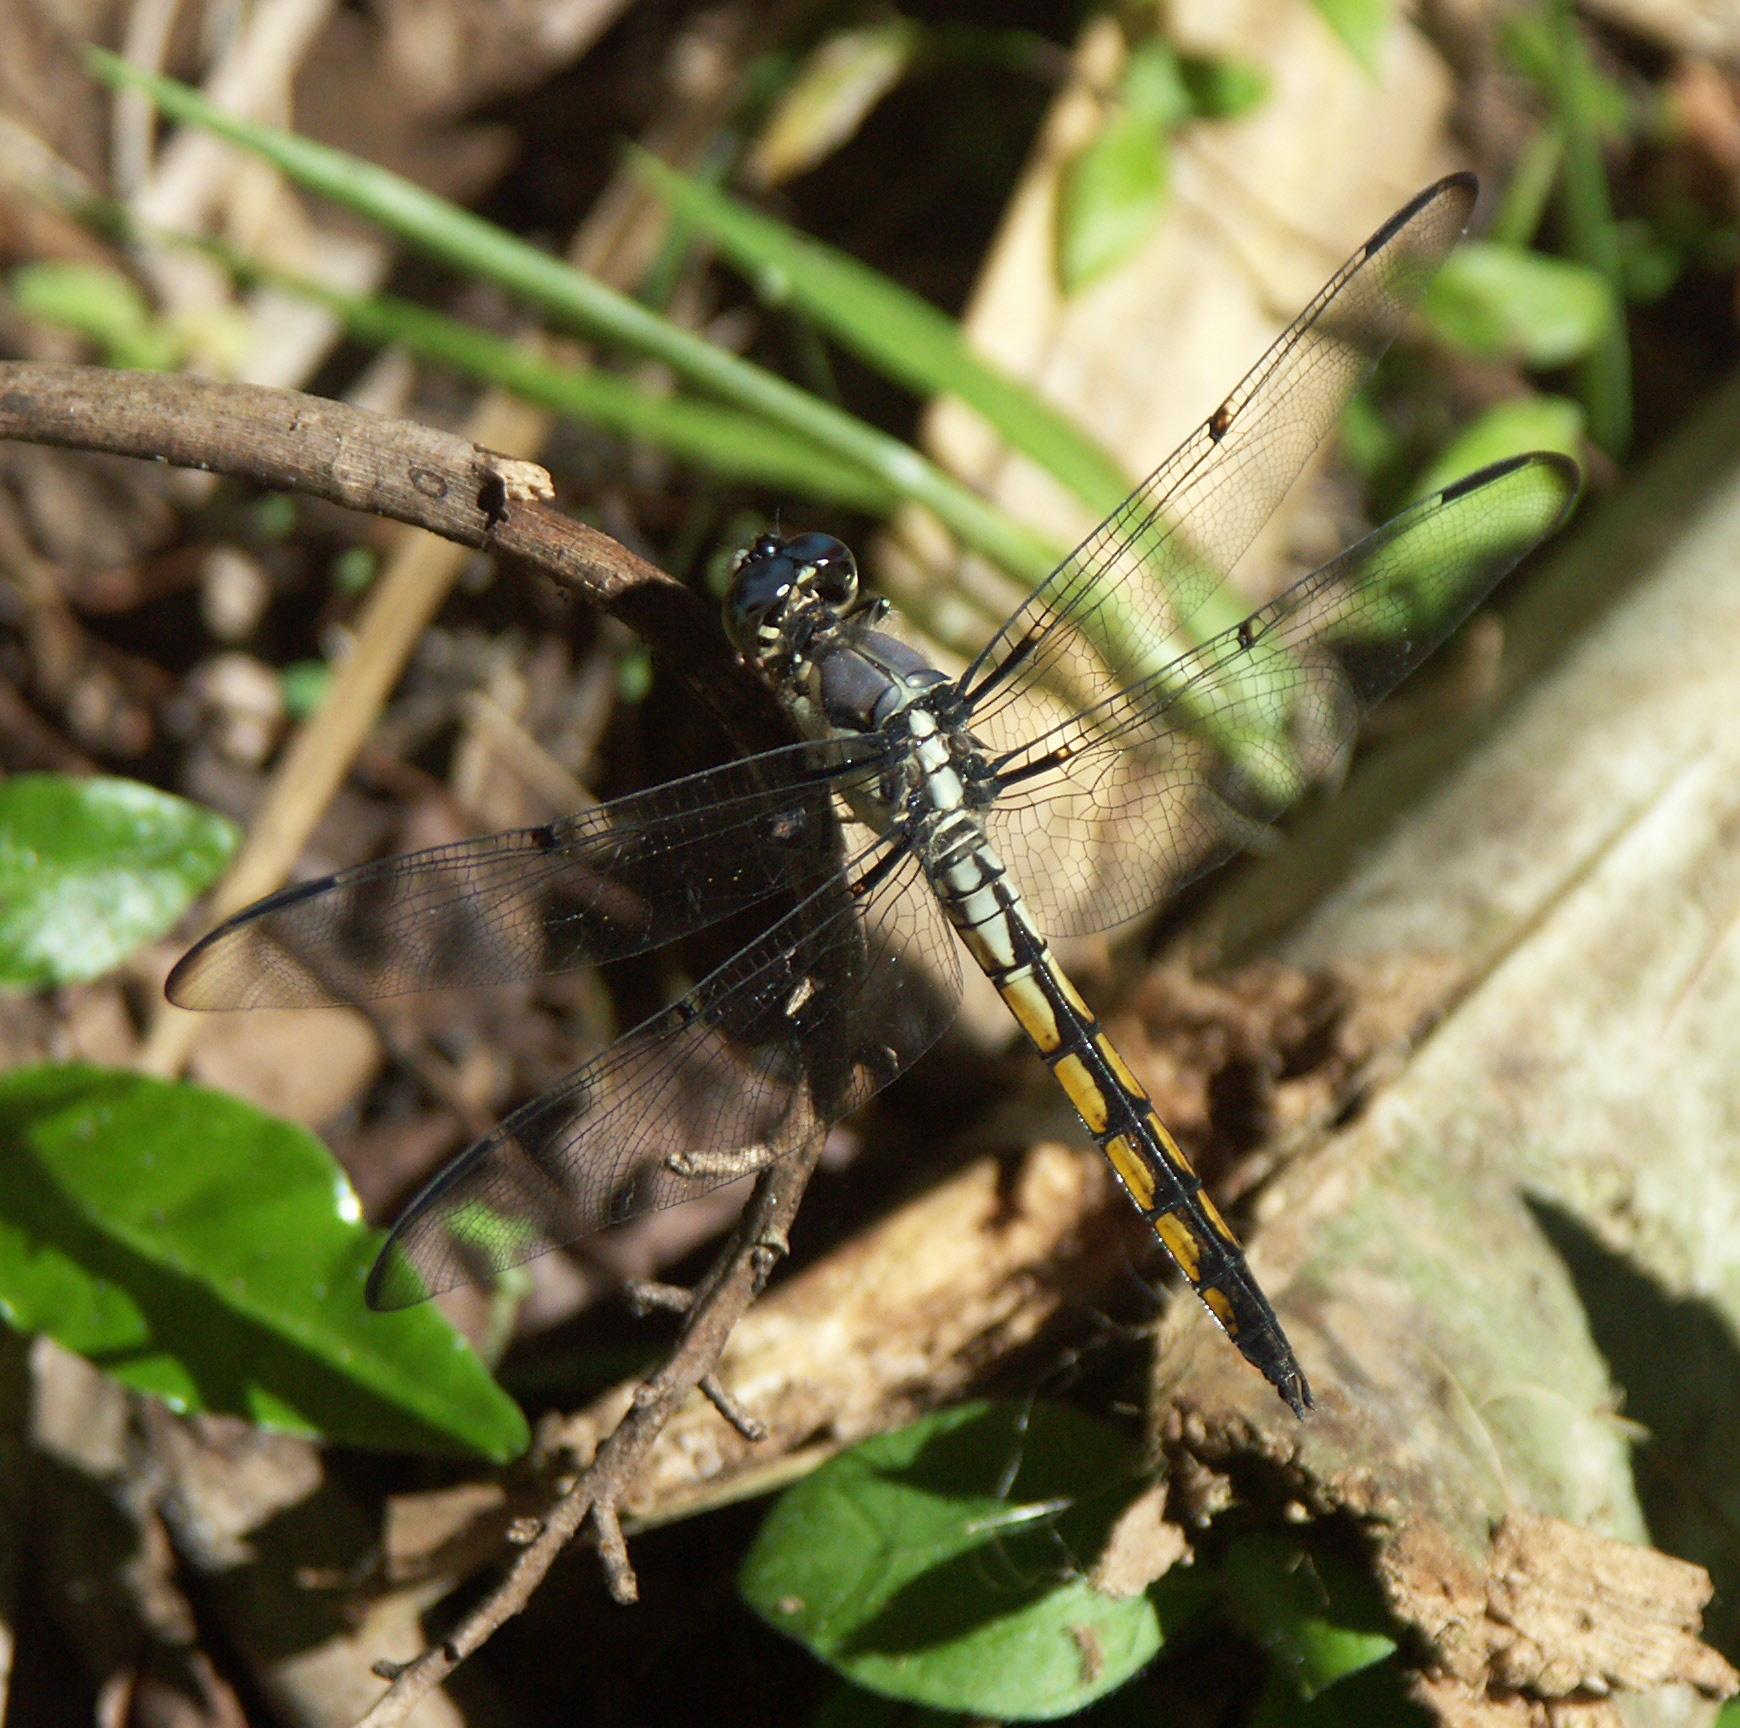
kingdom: Animalia
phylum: Arthropoda
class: Insecta
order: Odonata
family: Libellulidae
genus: Libellula
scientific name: Libellula vibrans
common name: Great blue skimmer
